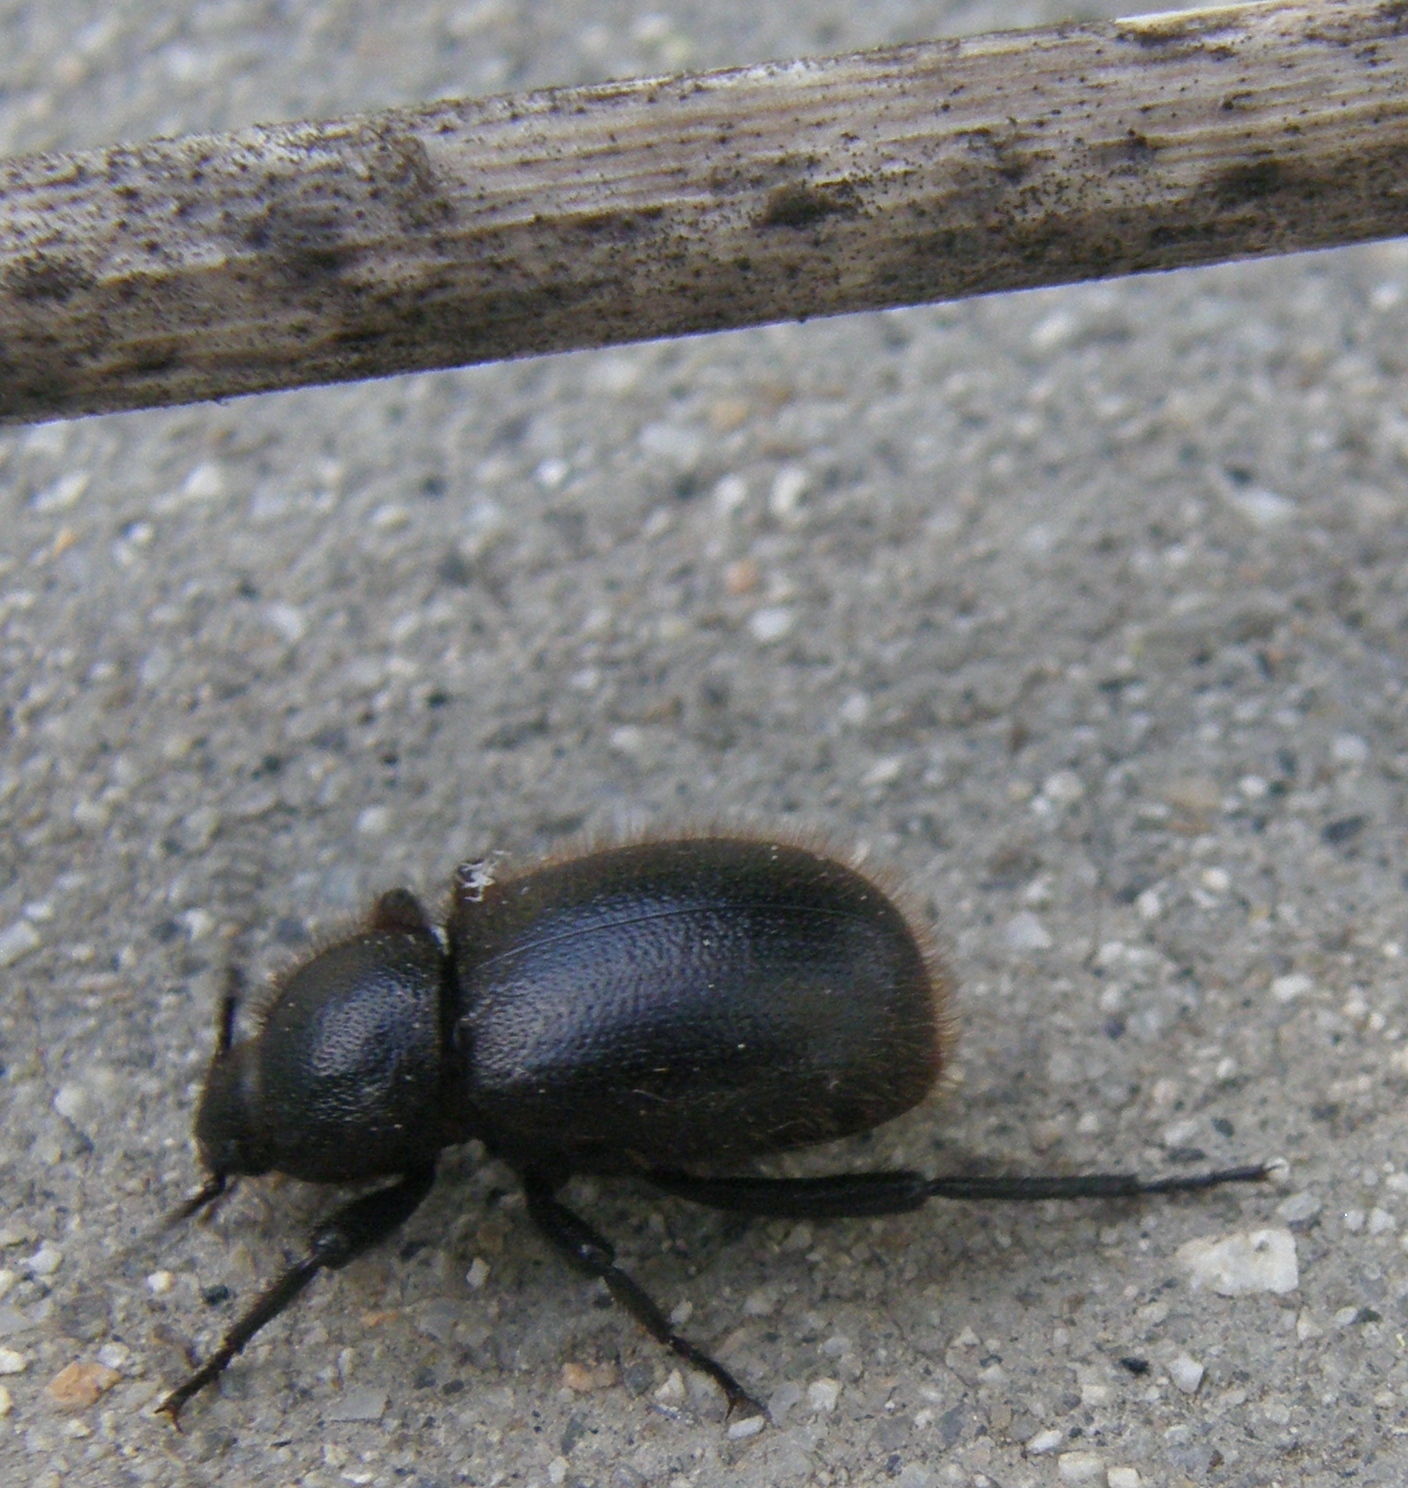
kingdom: Animalia
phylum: Arthropoda
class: Insecta
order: Coleoptera
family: Tenebrionidae
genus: Eleodes
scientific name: Eleodes osculans
